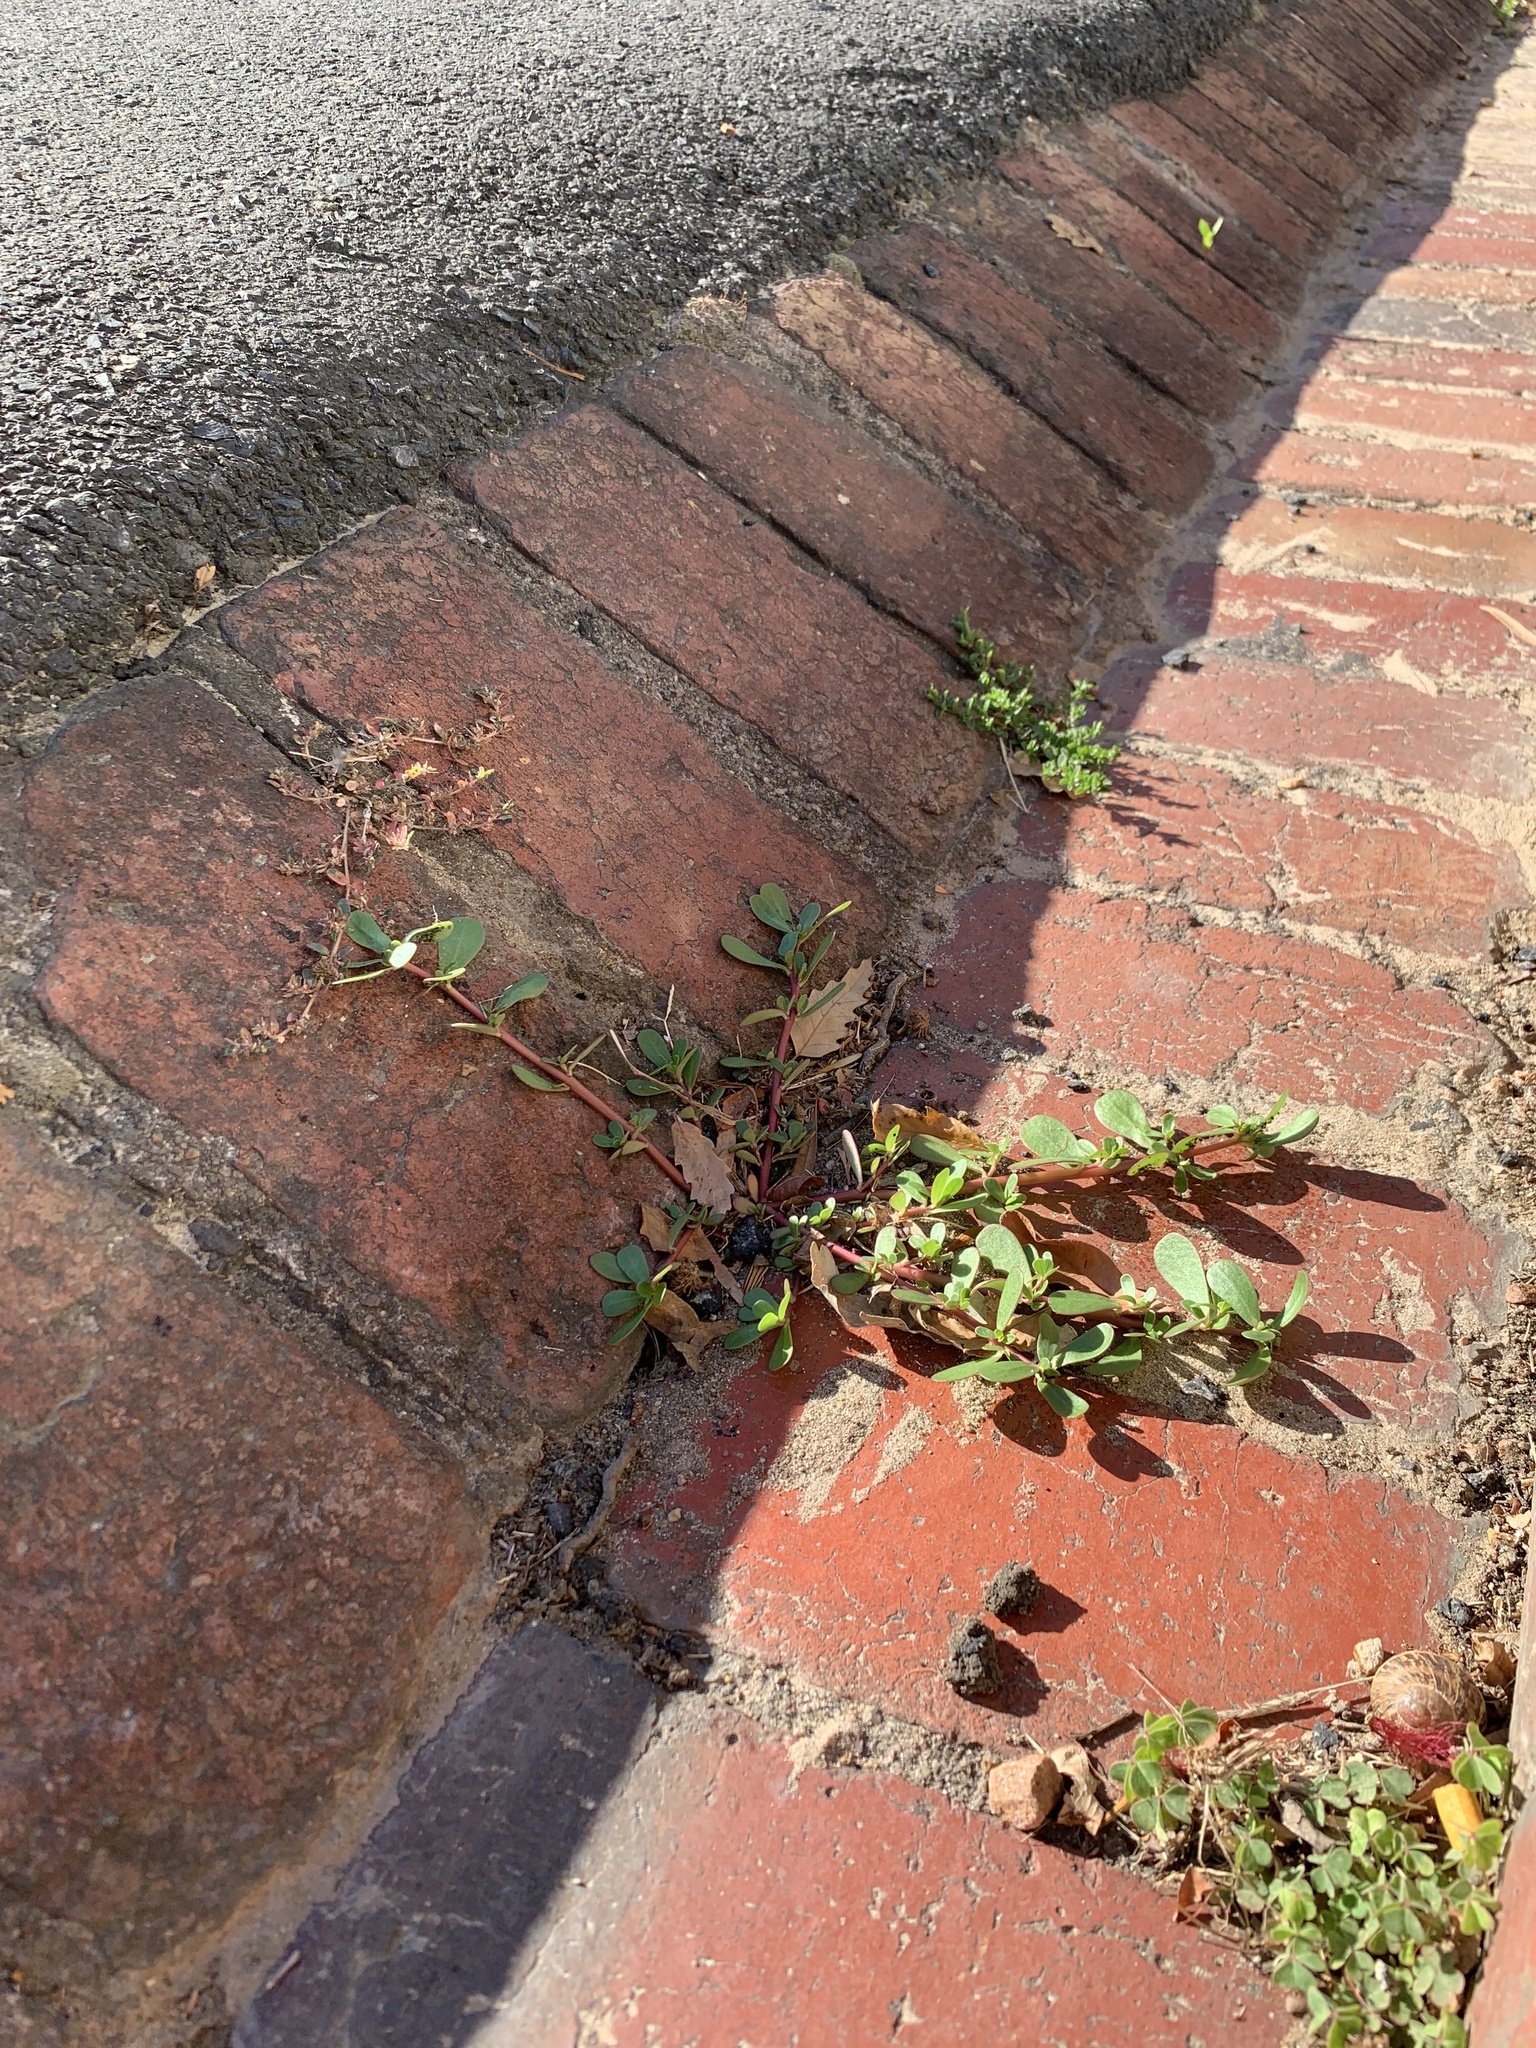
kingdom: Plantae
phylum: Tracheophyta
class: Magnoliopsida
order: Caryophyllales
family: Portulacaceae
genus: Portulaca
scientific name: Portulaca oleracea
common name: Common purslane
